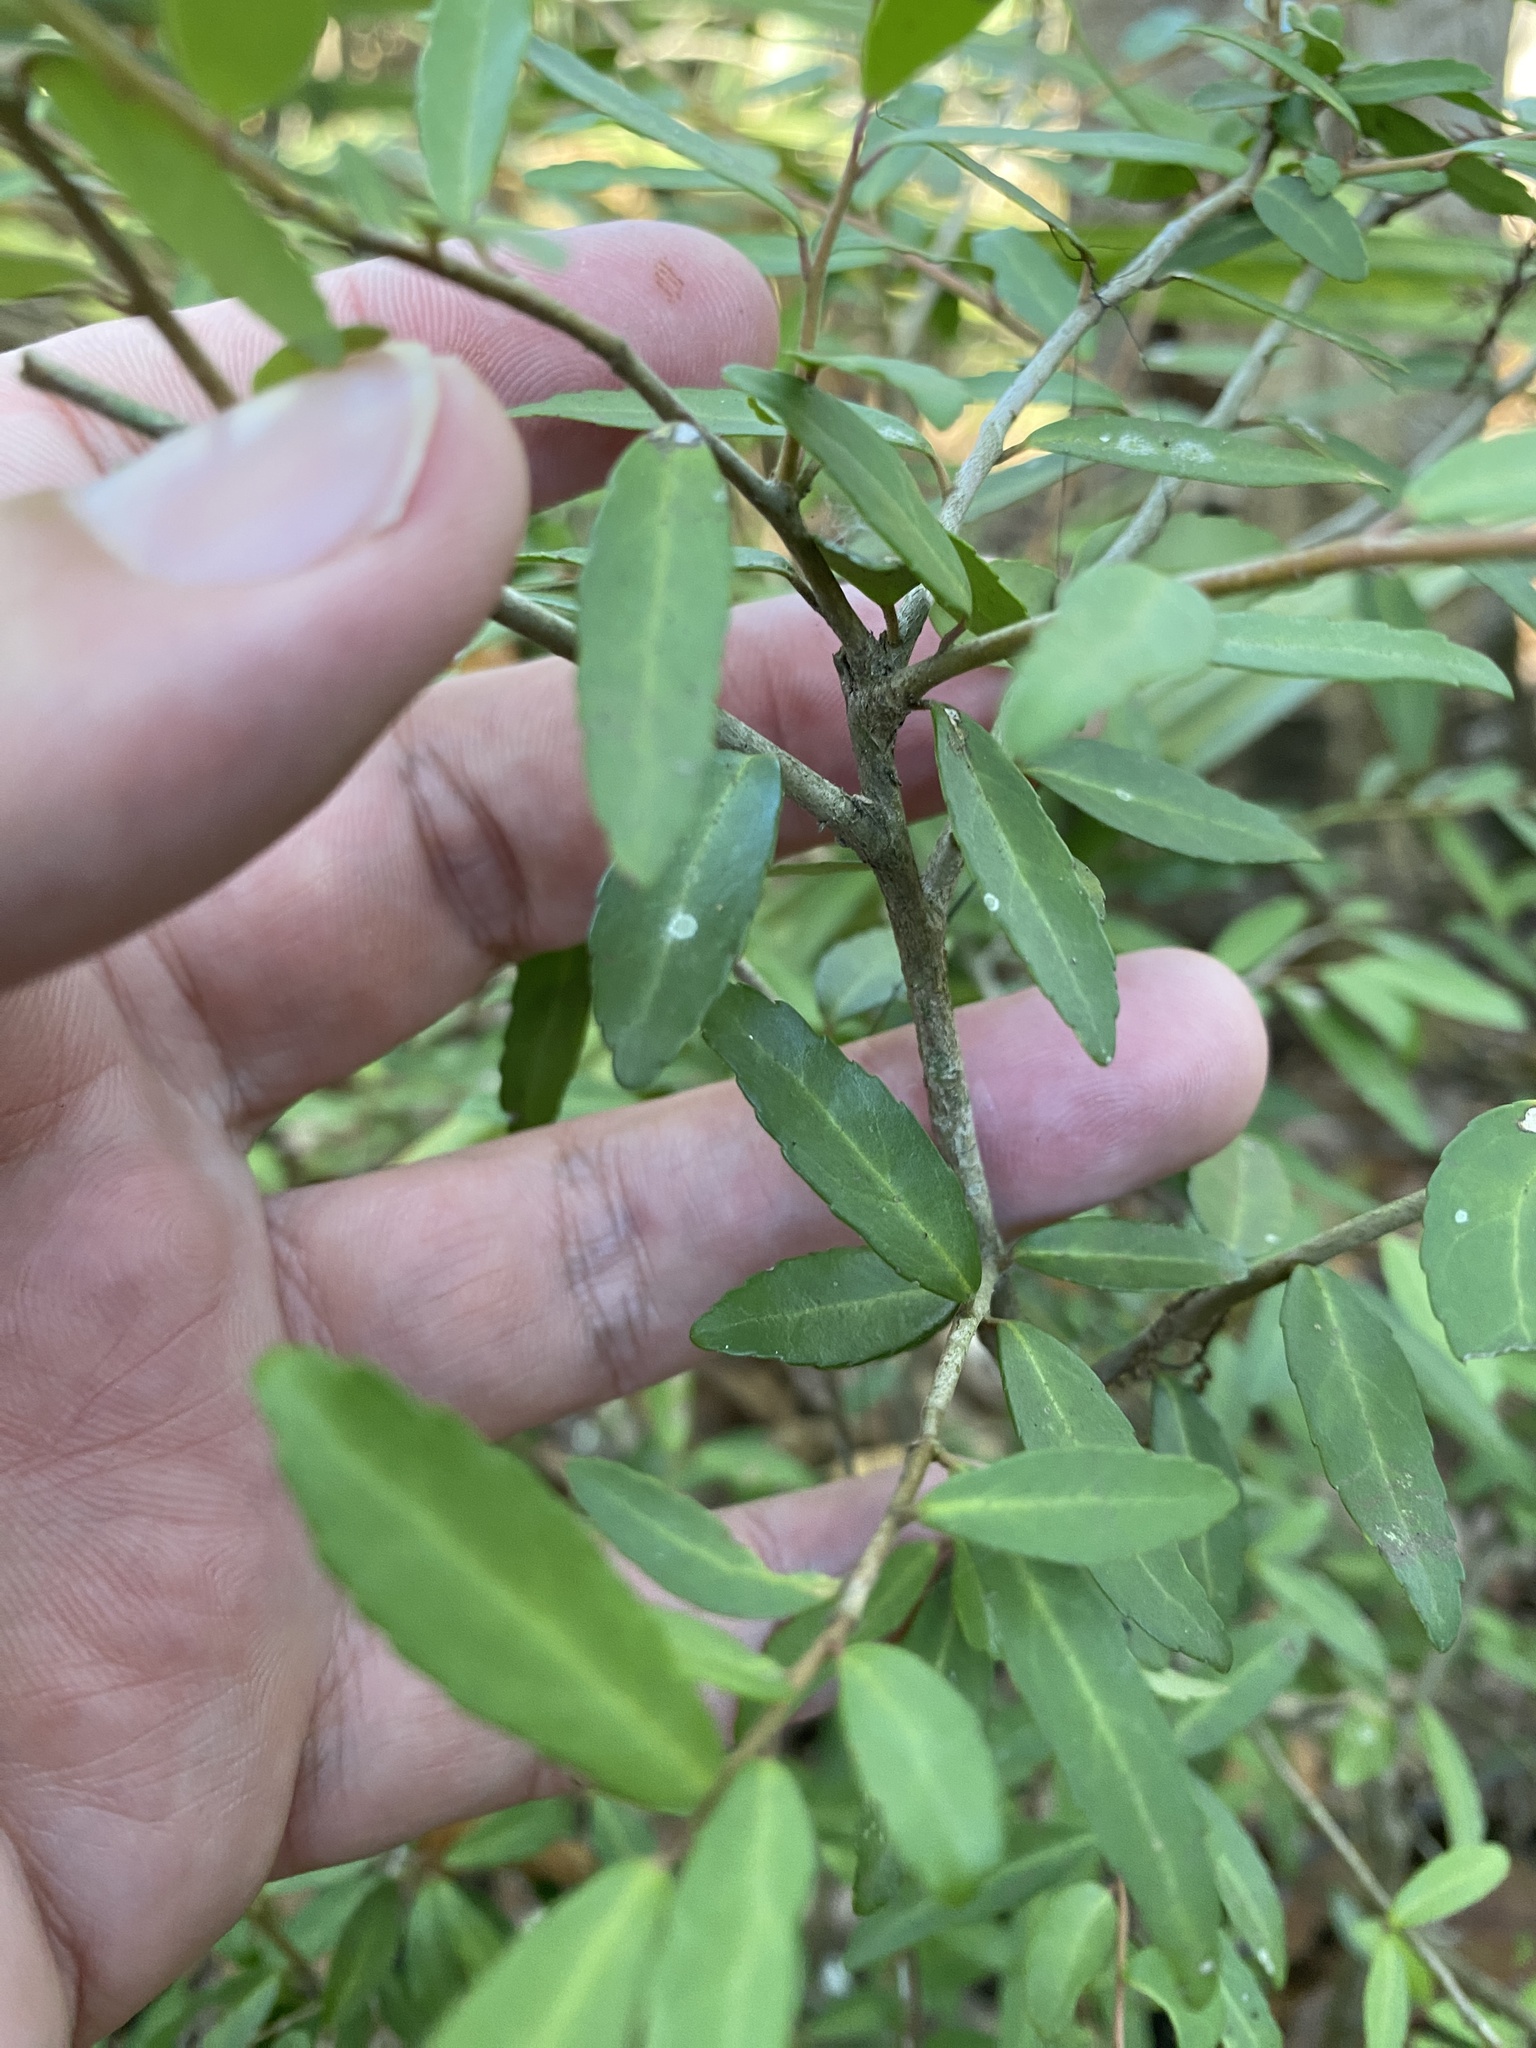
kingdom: Plantae
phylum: Tracheophyta
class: Magnoliopsida
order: Aquifoliales
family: Aquifoliaceae
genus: Ilex
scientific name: Ilex vomitoria
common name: Yaupon holly
